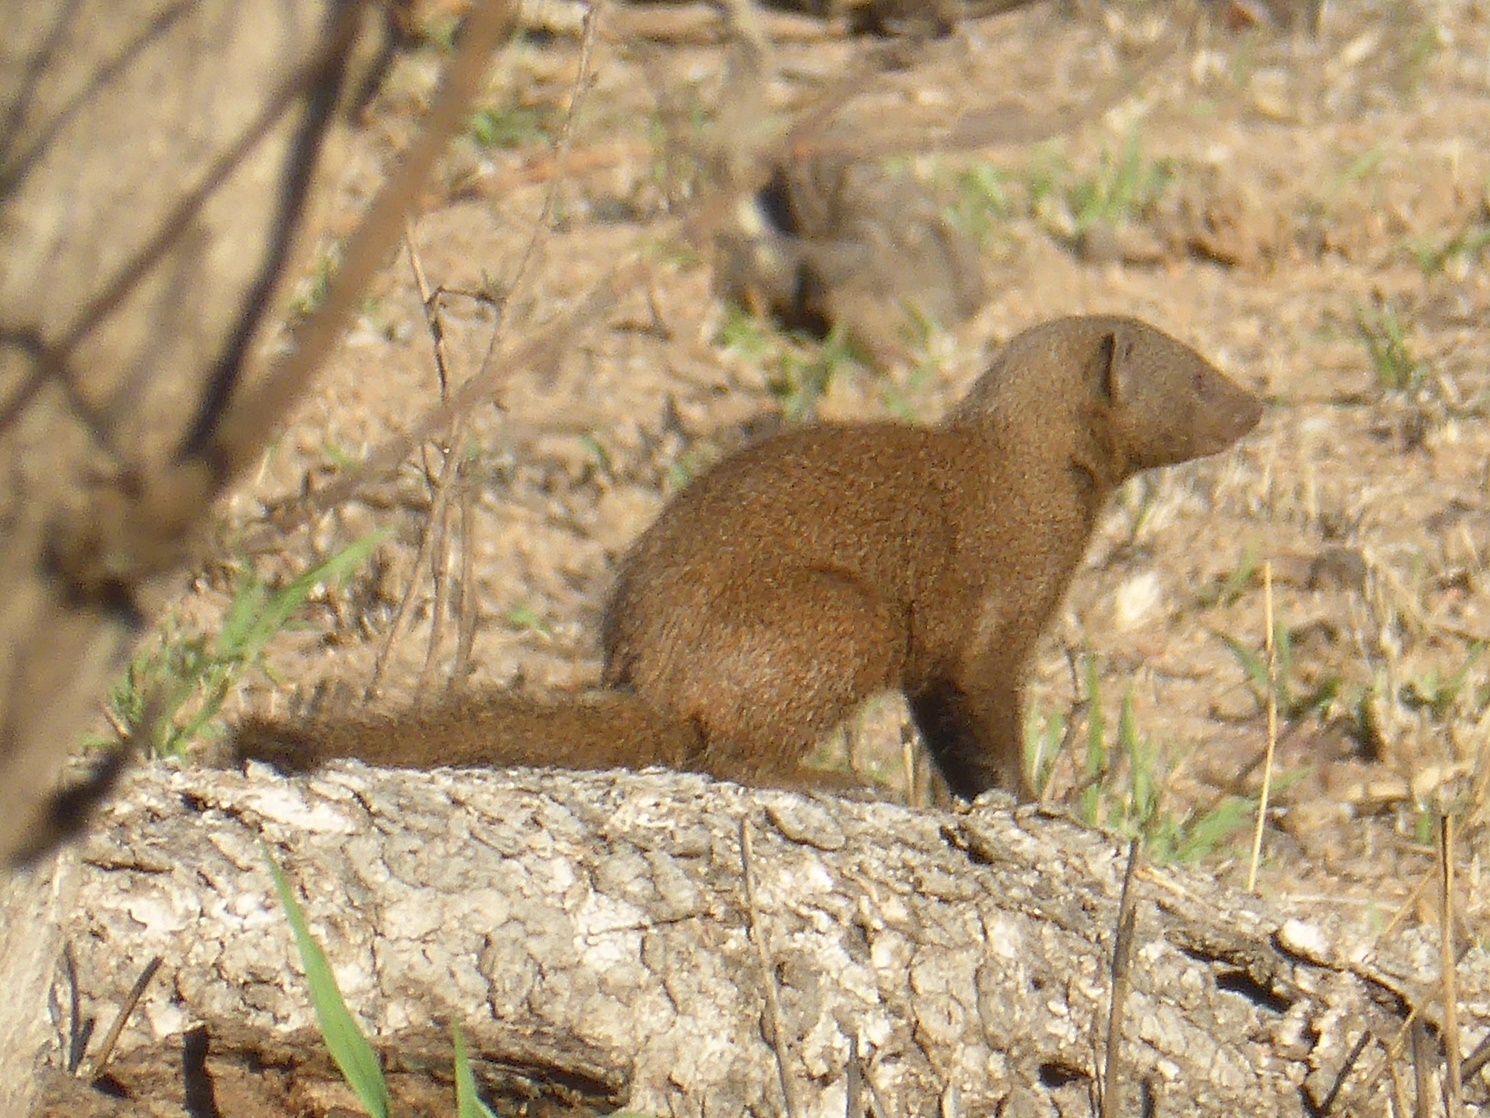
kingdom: Animalia
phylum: Chordata
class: Mammalia
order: Carnivora
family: Herpestidae
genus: Helogale
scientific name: Helogale parvula
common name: Common dwarf mongoose
